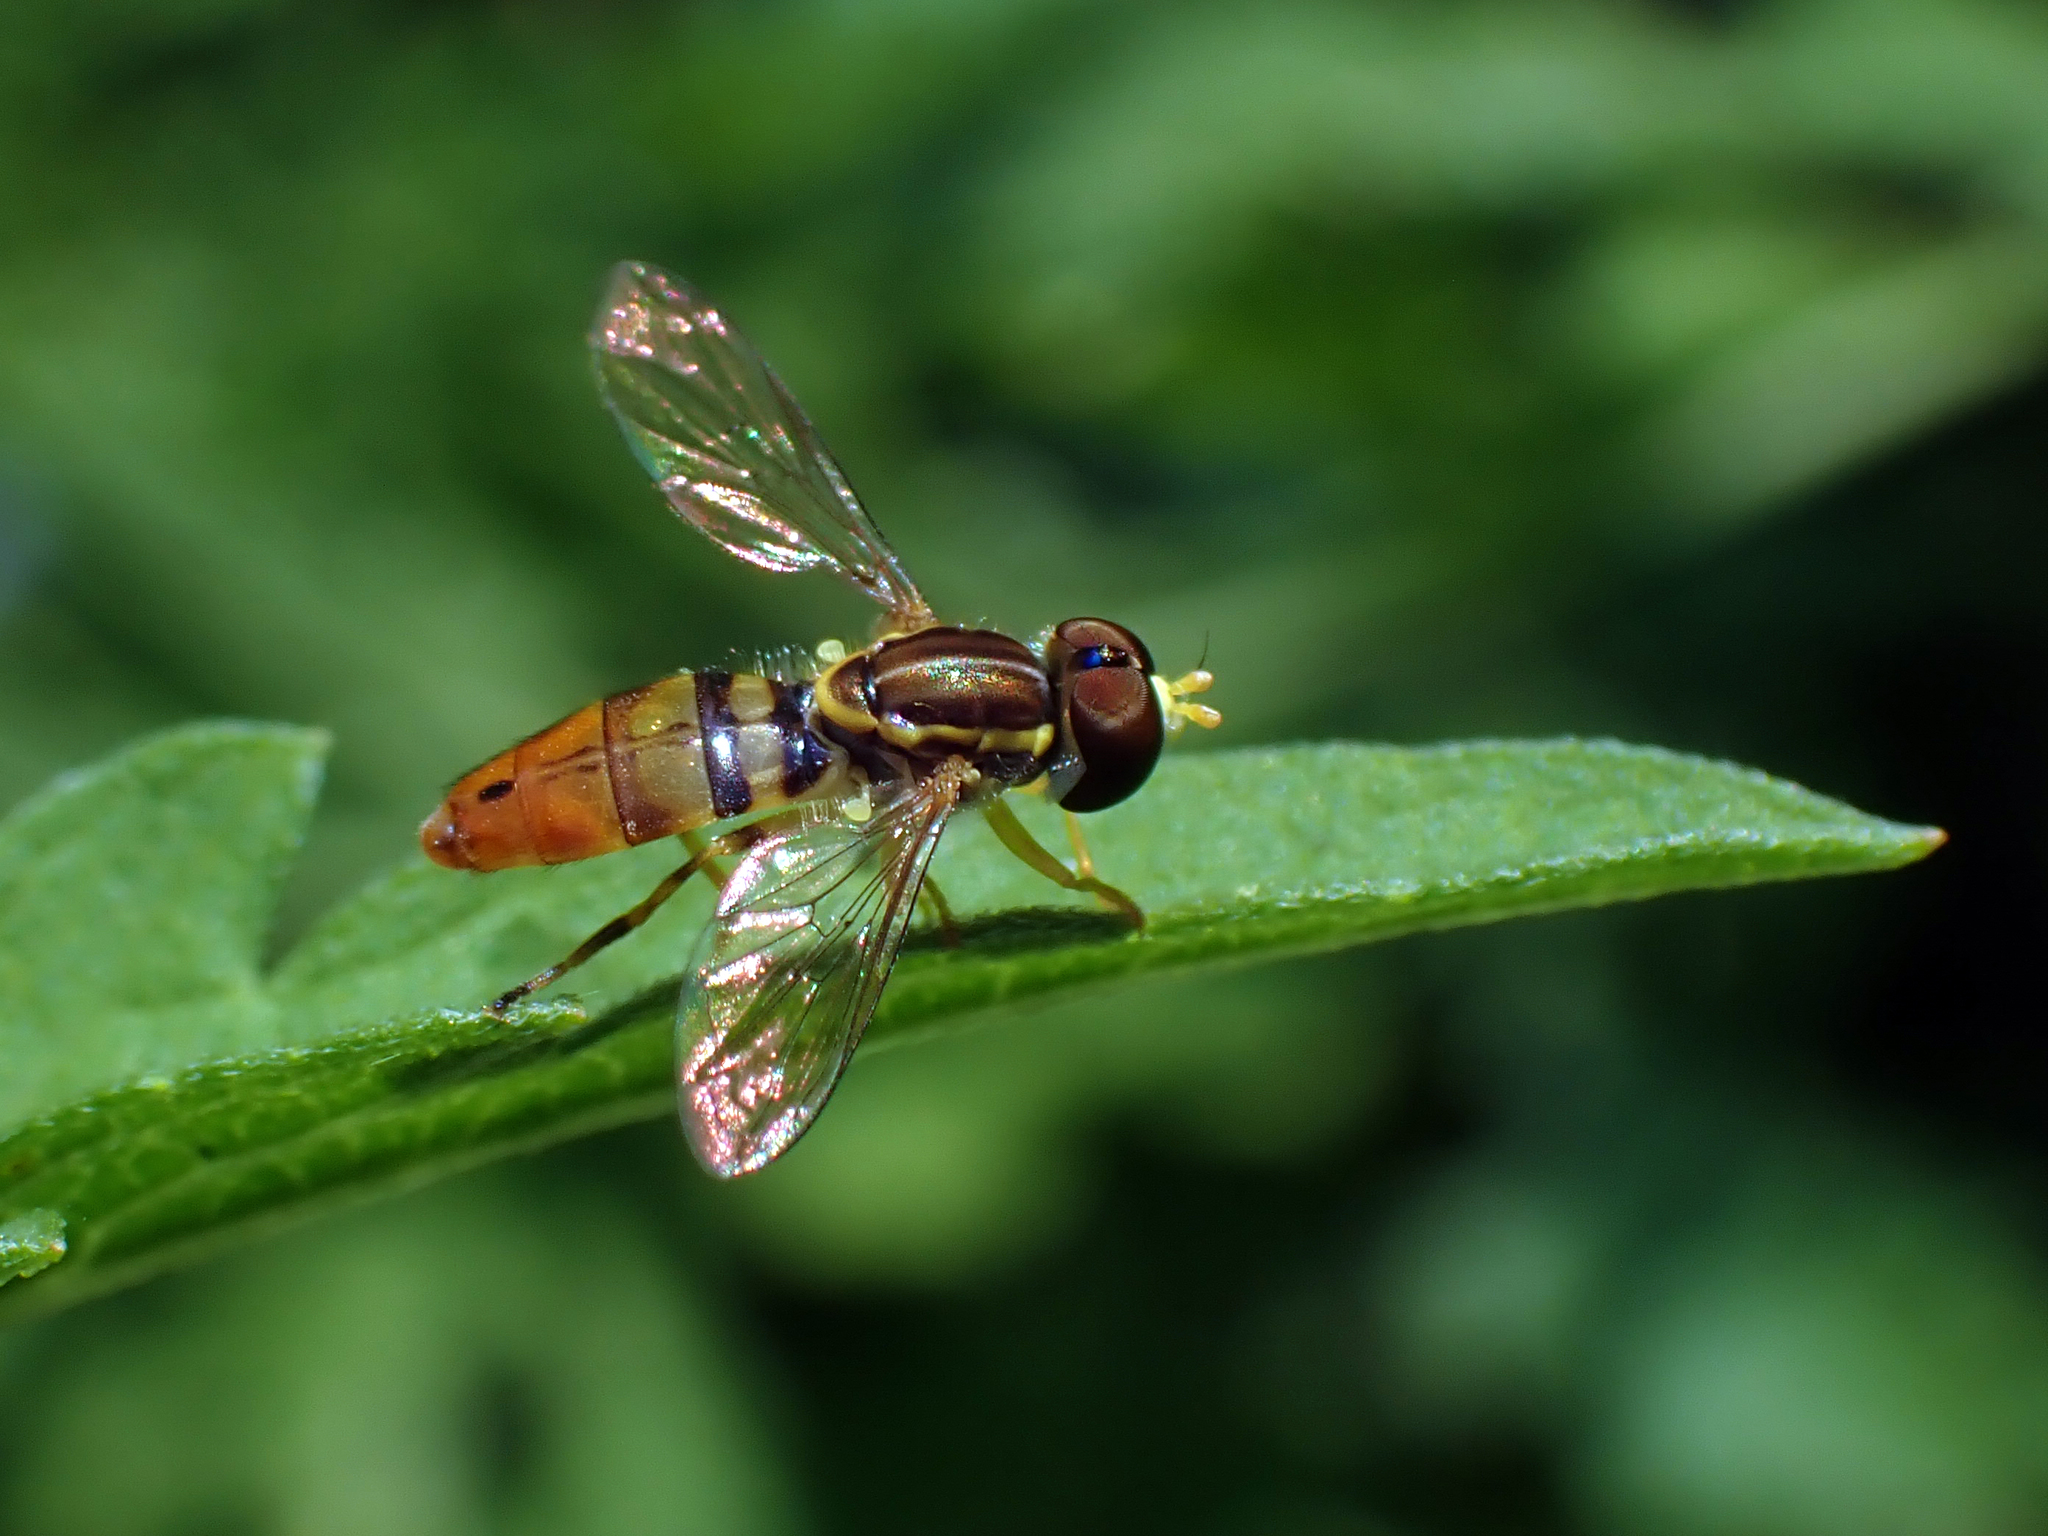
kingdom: Animalia
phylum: Arthropoda
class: Insecta
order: Diptera
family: Syrphidae
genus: Toxomerus
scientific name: Toxomerus floralis
